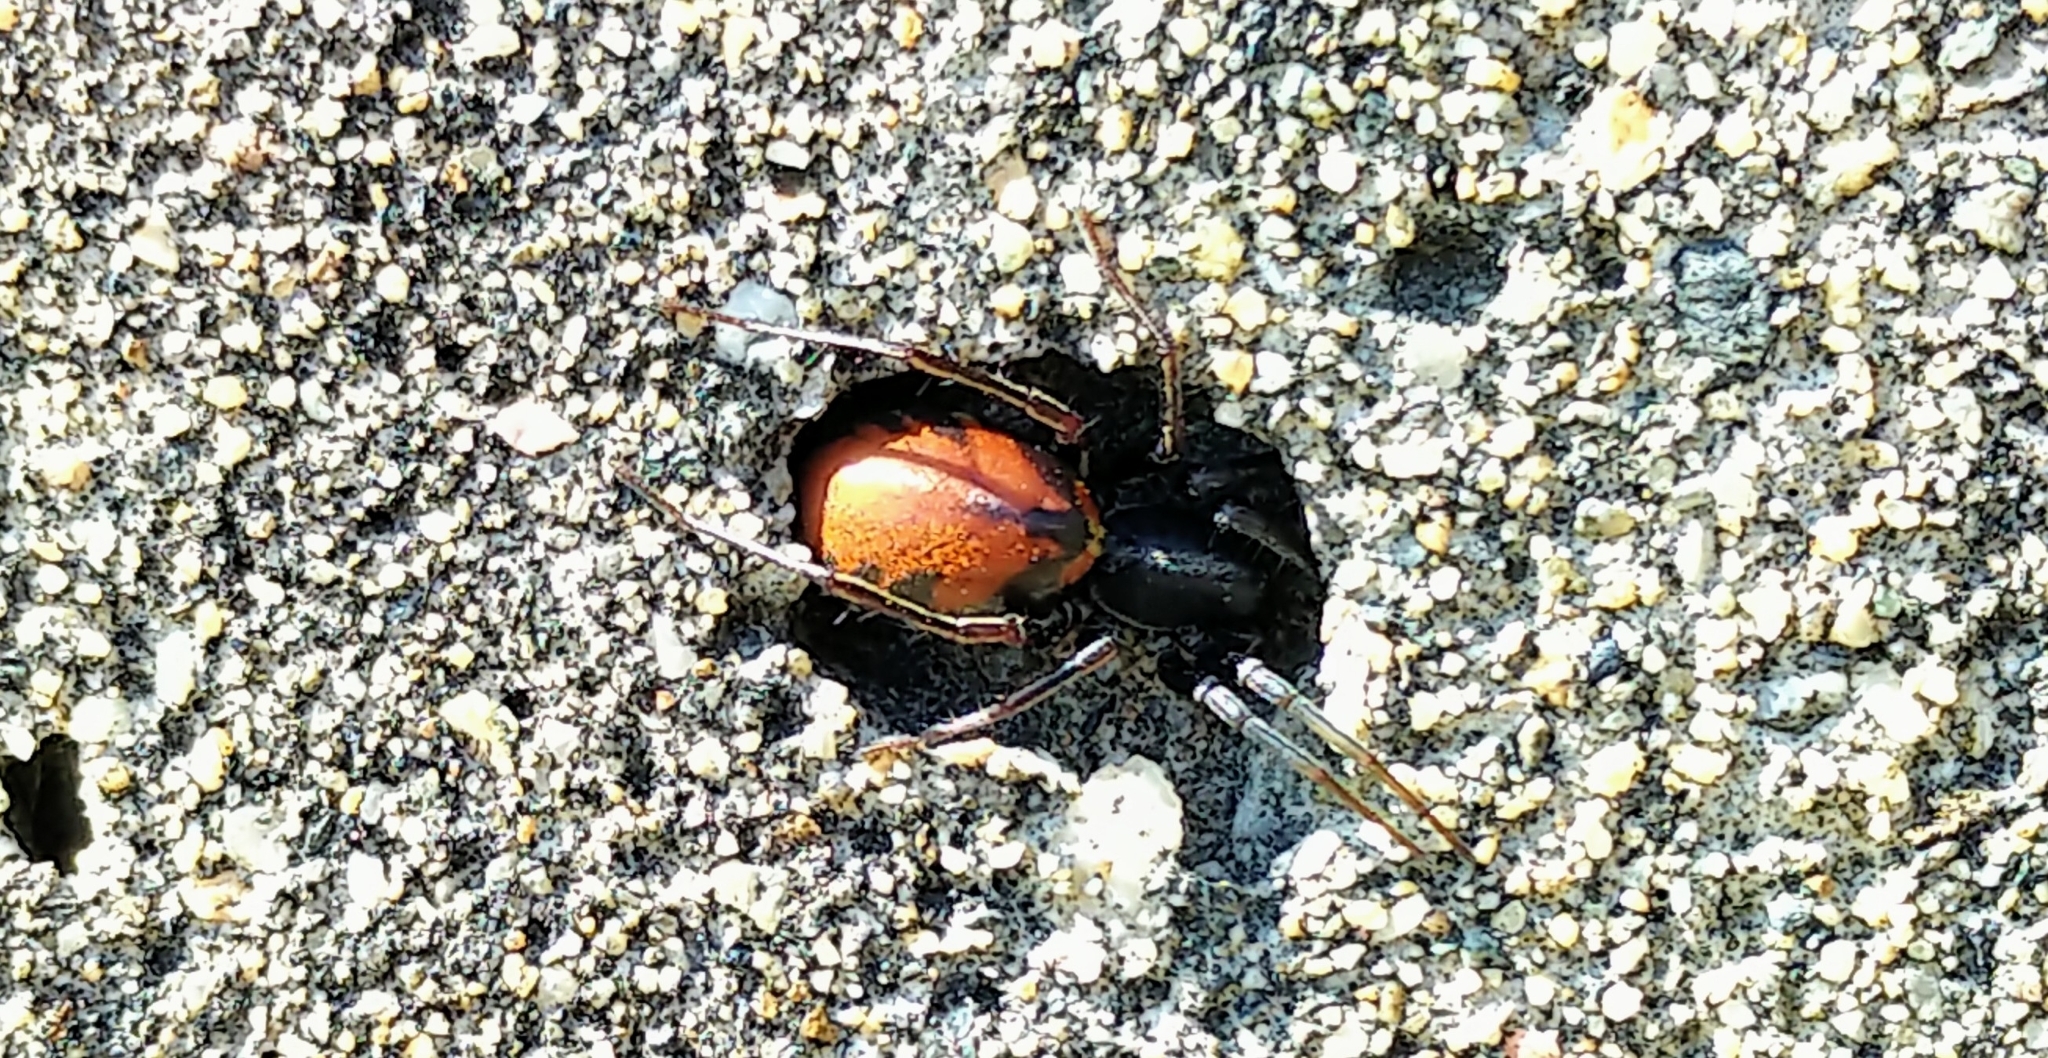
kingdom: Animalia
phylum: Arthropoda
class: Arachnida
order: Araneae
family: Corinnidae
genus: Castianeira
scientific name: Castianeira walsinghami
